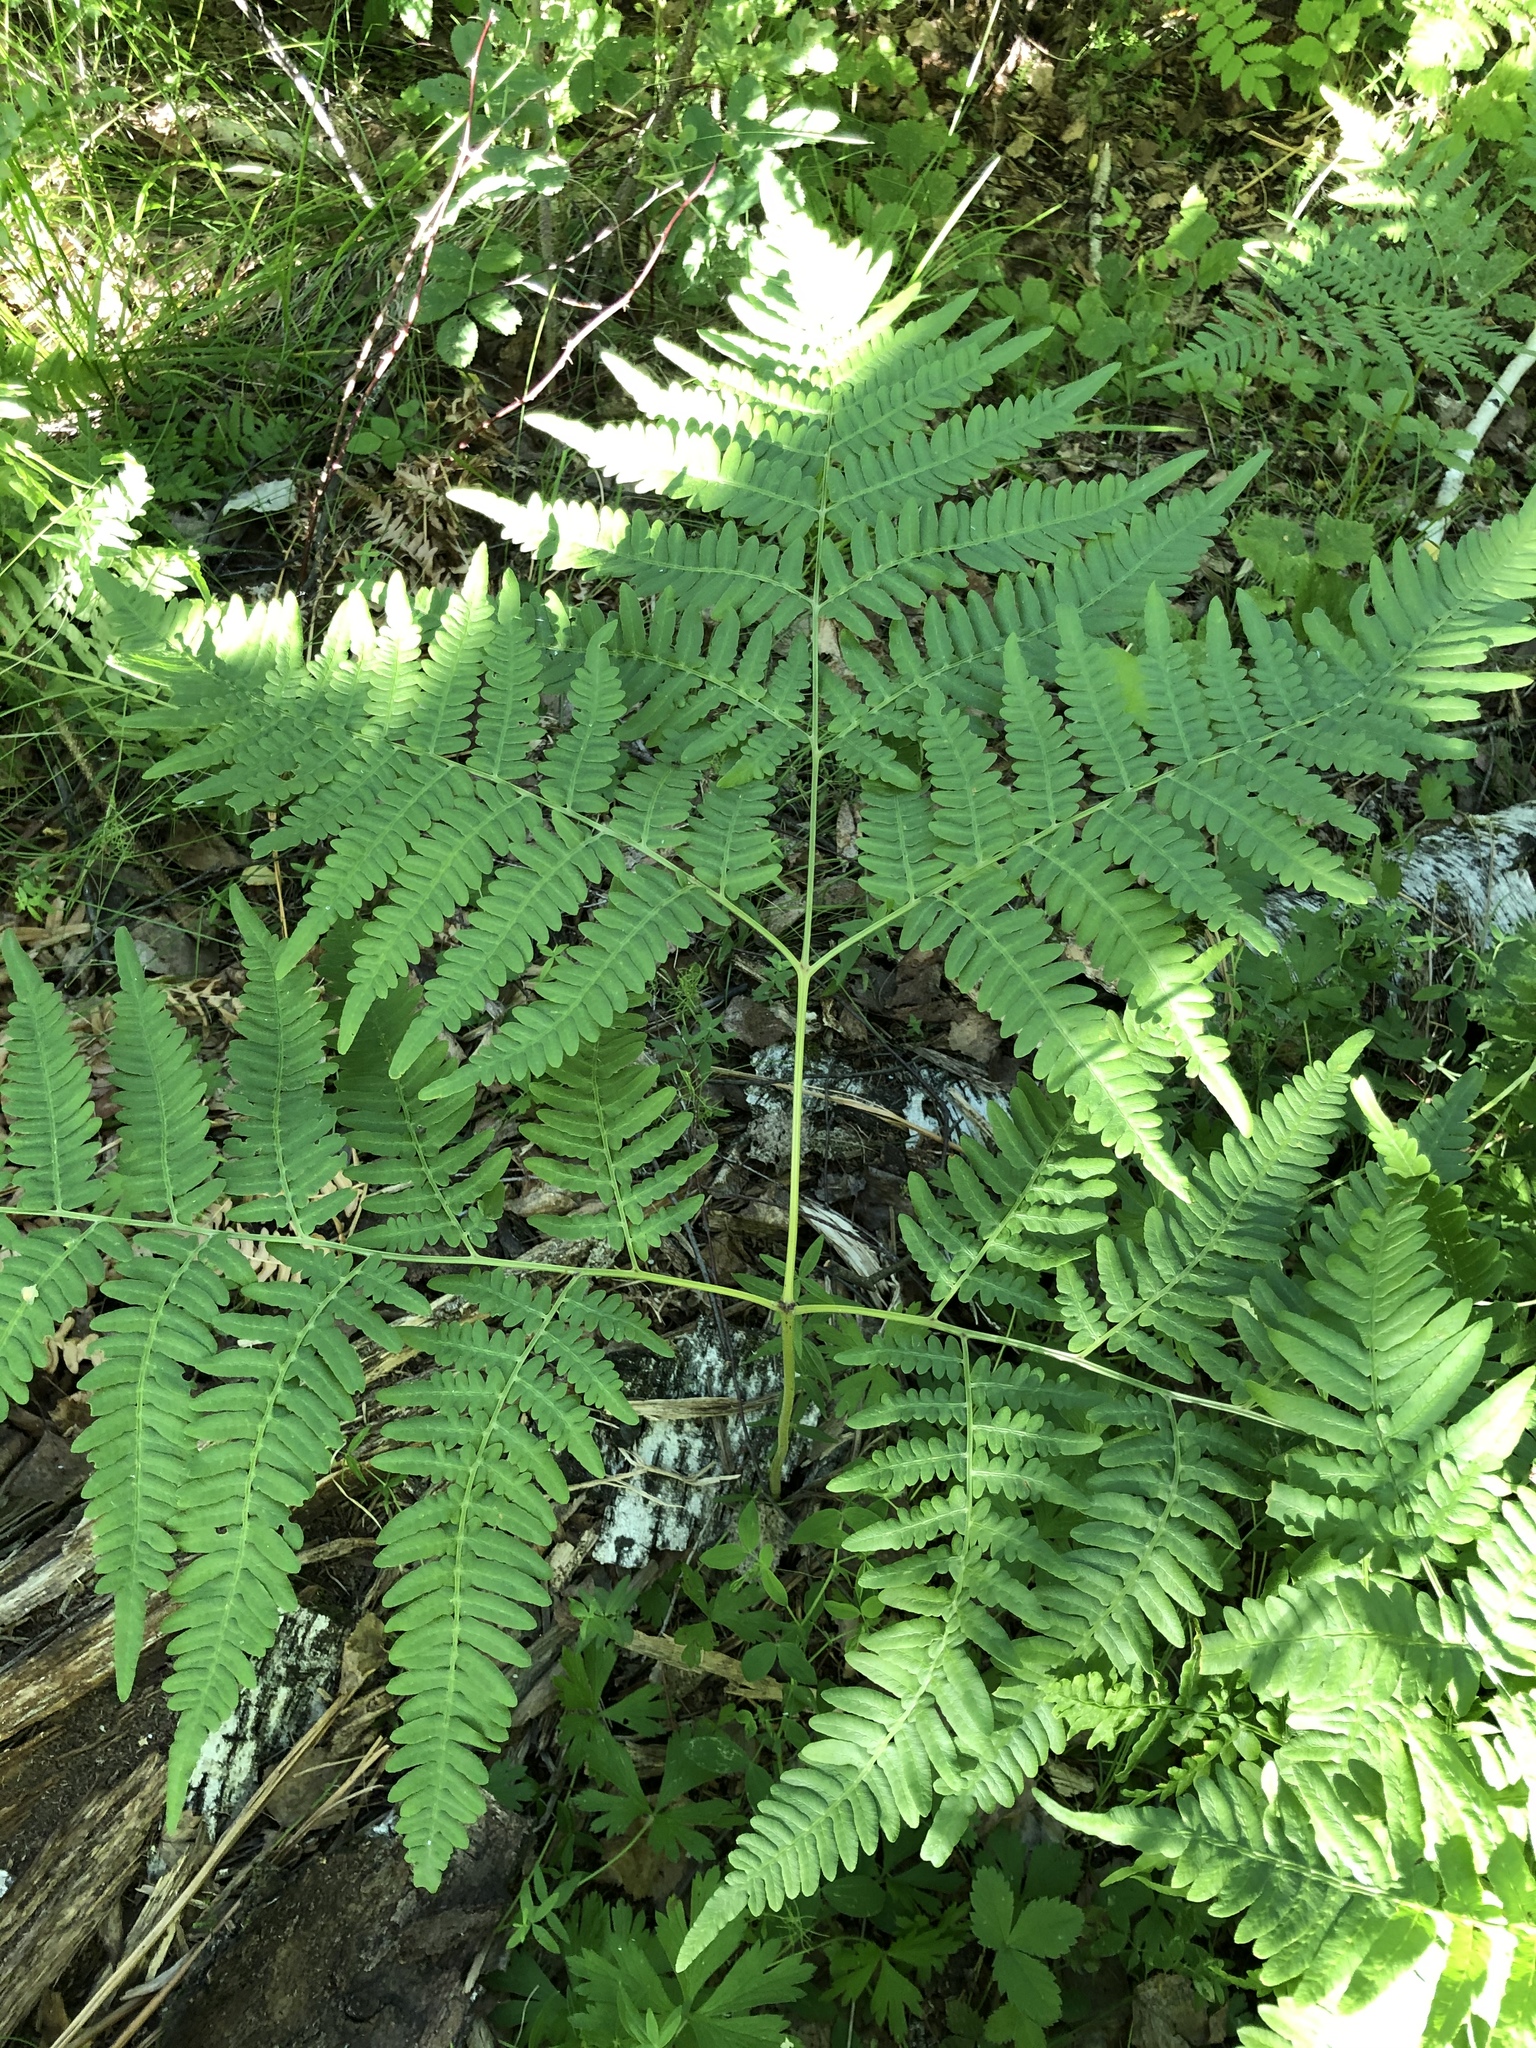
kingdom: Plantae
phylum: Tracheophyta
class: Polypodiopsida
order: Polypodiales
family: Dennstaedtiaceae
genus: Pteridium
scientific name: Pteridium aquilinum
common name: Bracken
